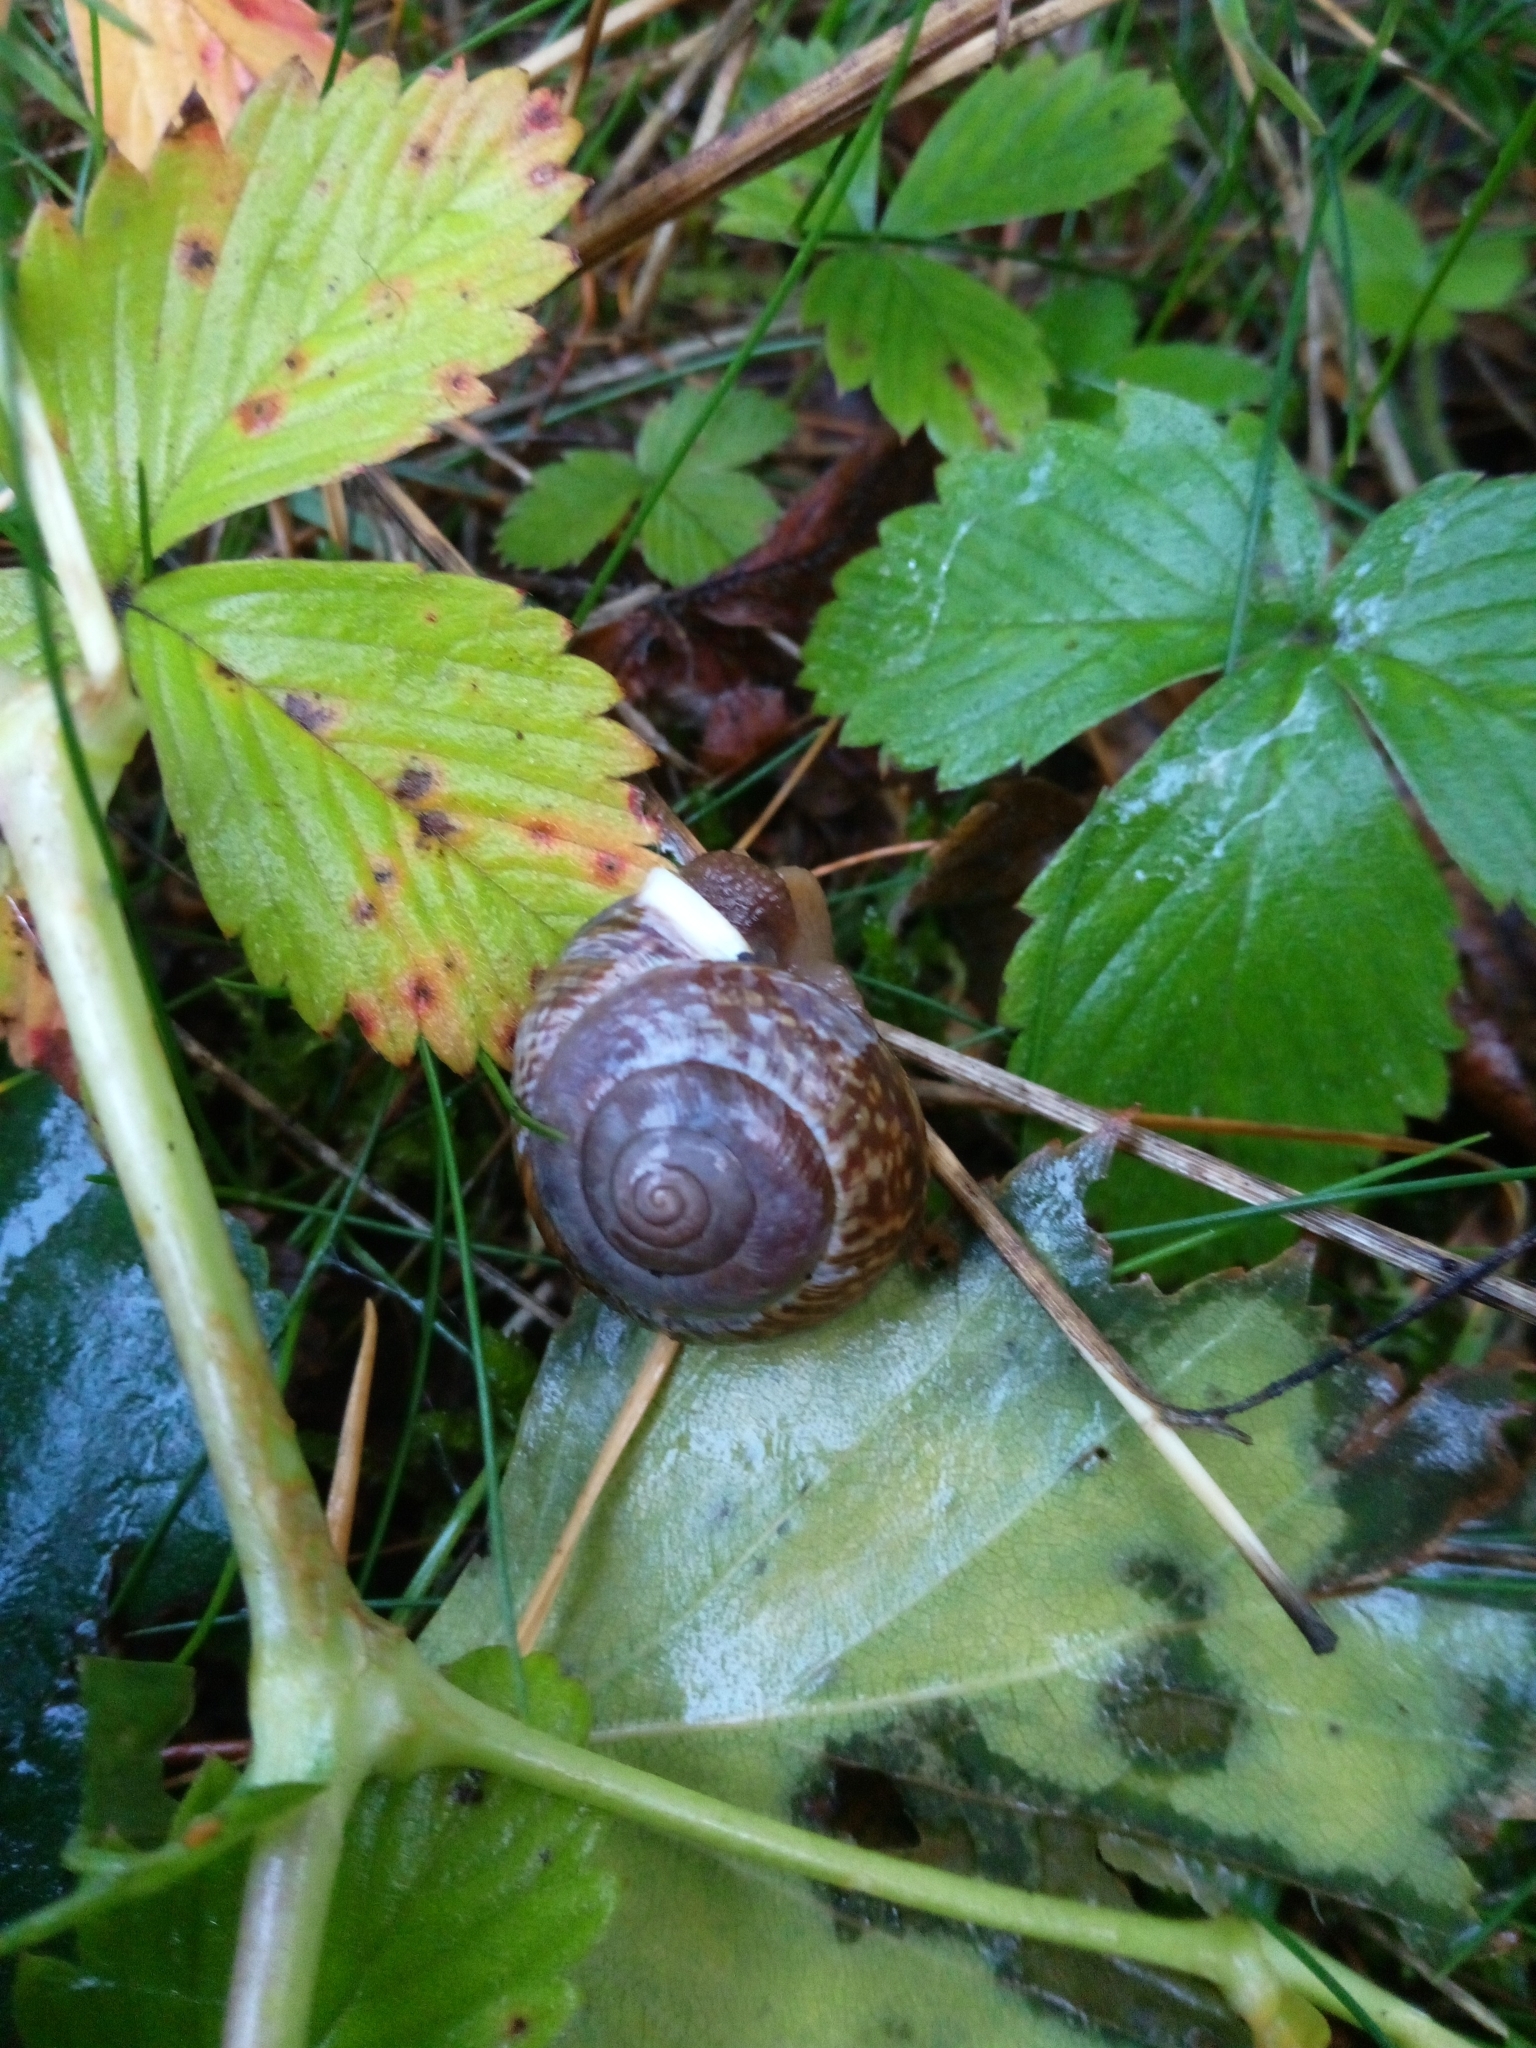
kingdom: Animalia
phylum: Mollusca
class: Gastropoda
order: Stylommatophora
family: Helicidae
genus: Arianta
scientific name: Arianta arbustorum
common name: Copse snail
